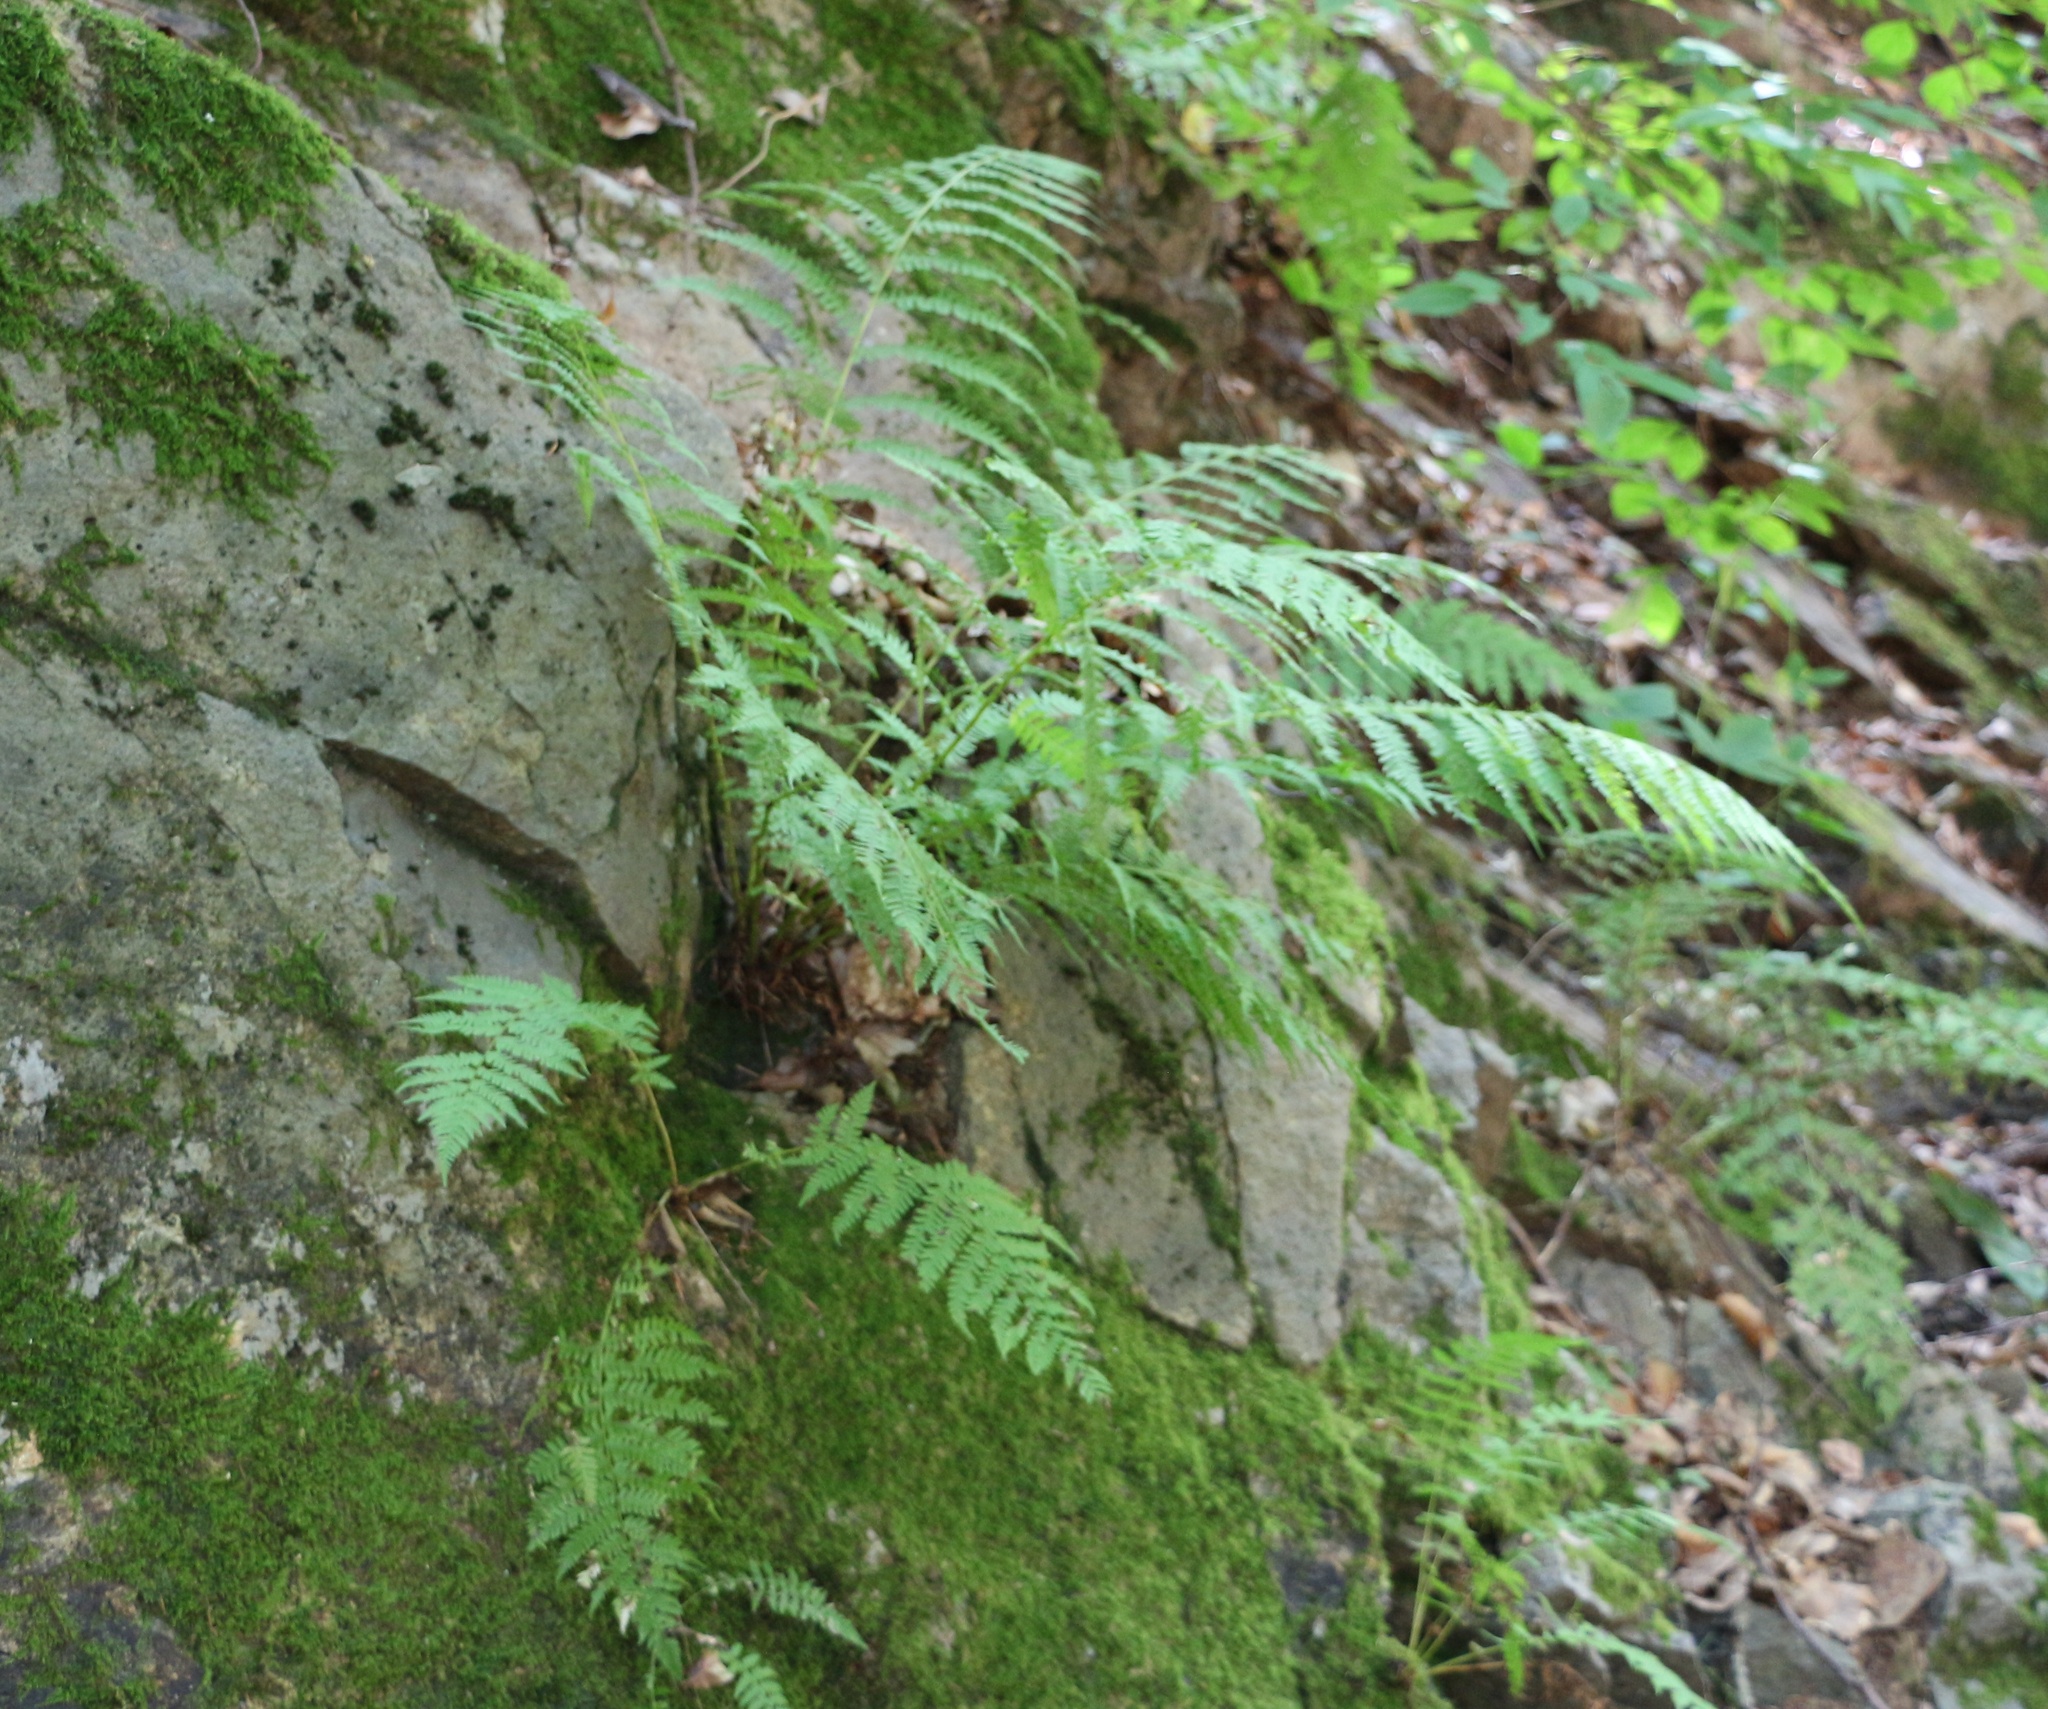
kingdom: Plantae
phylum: Tracheophyta
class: Polypodiopsida
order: Polypodiales
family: Athyriaceae
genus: Athyrium
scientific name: Athyrium filix-femina
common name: Lady fern
